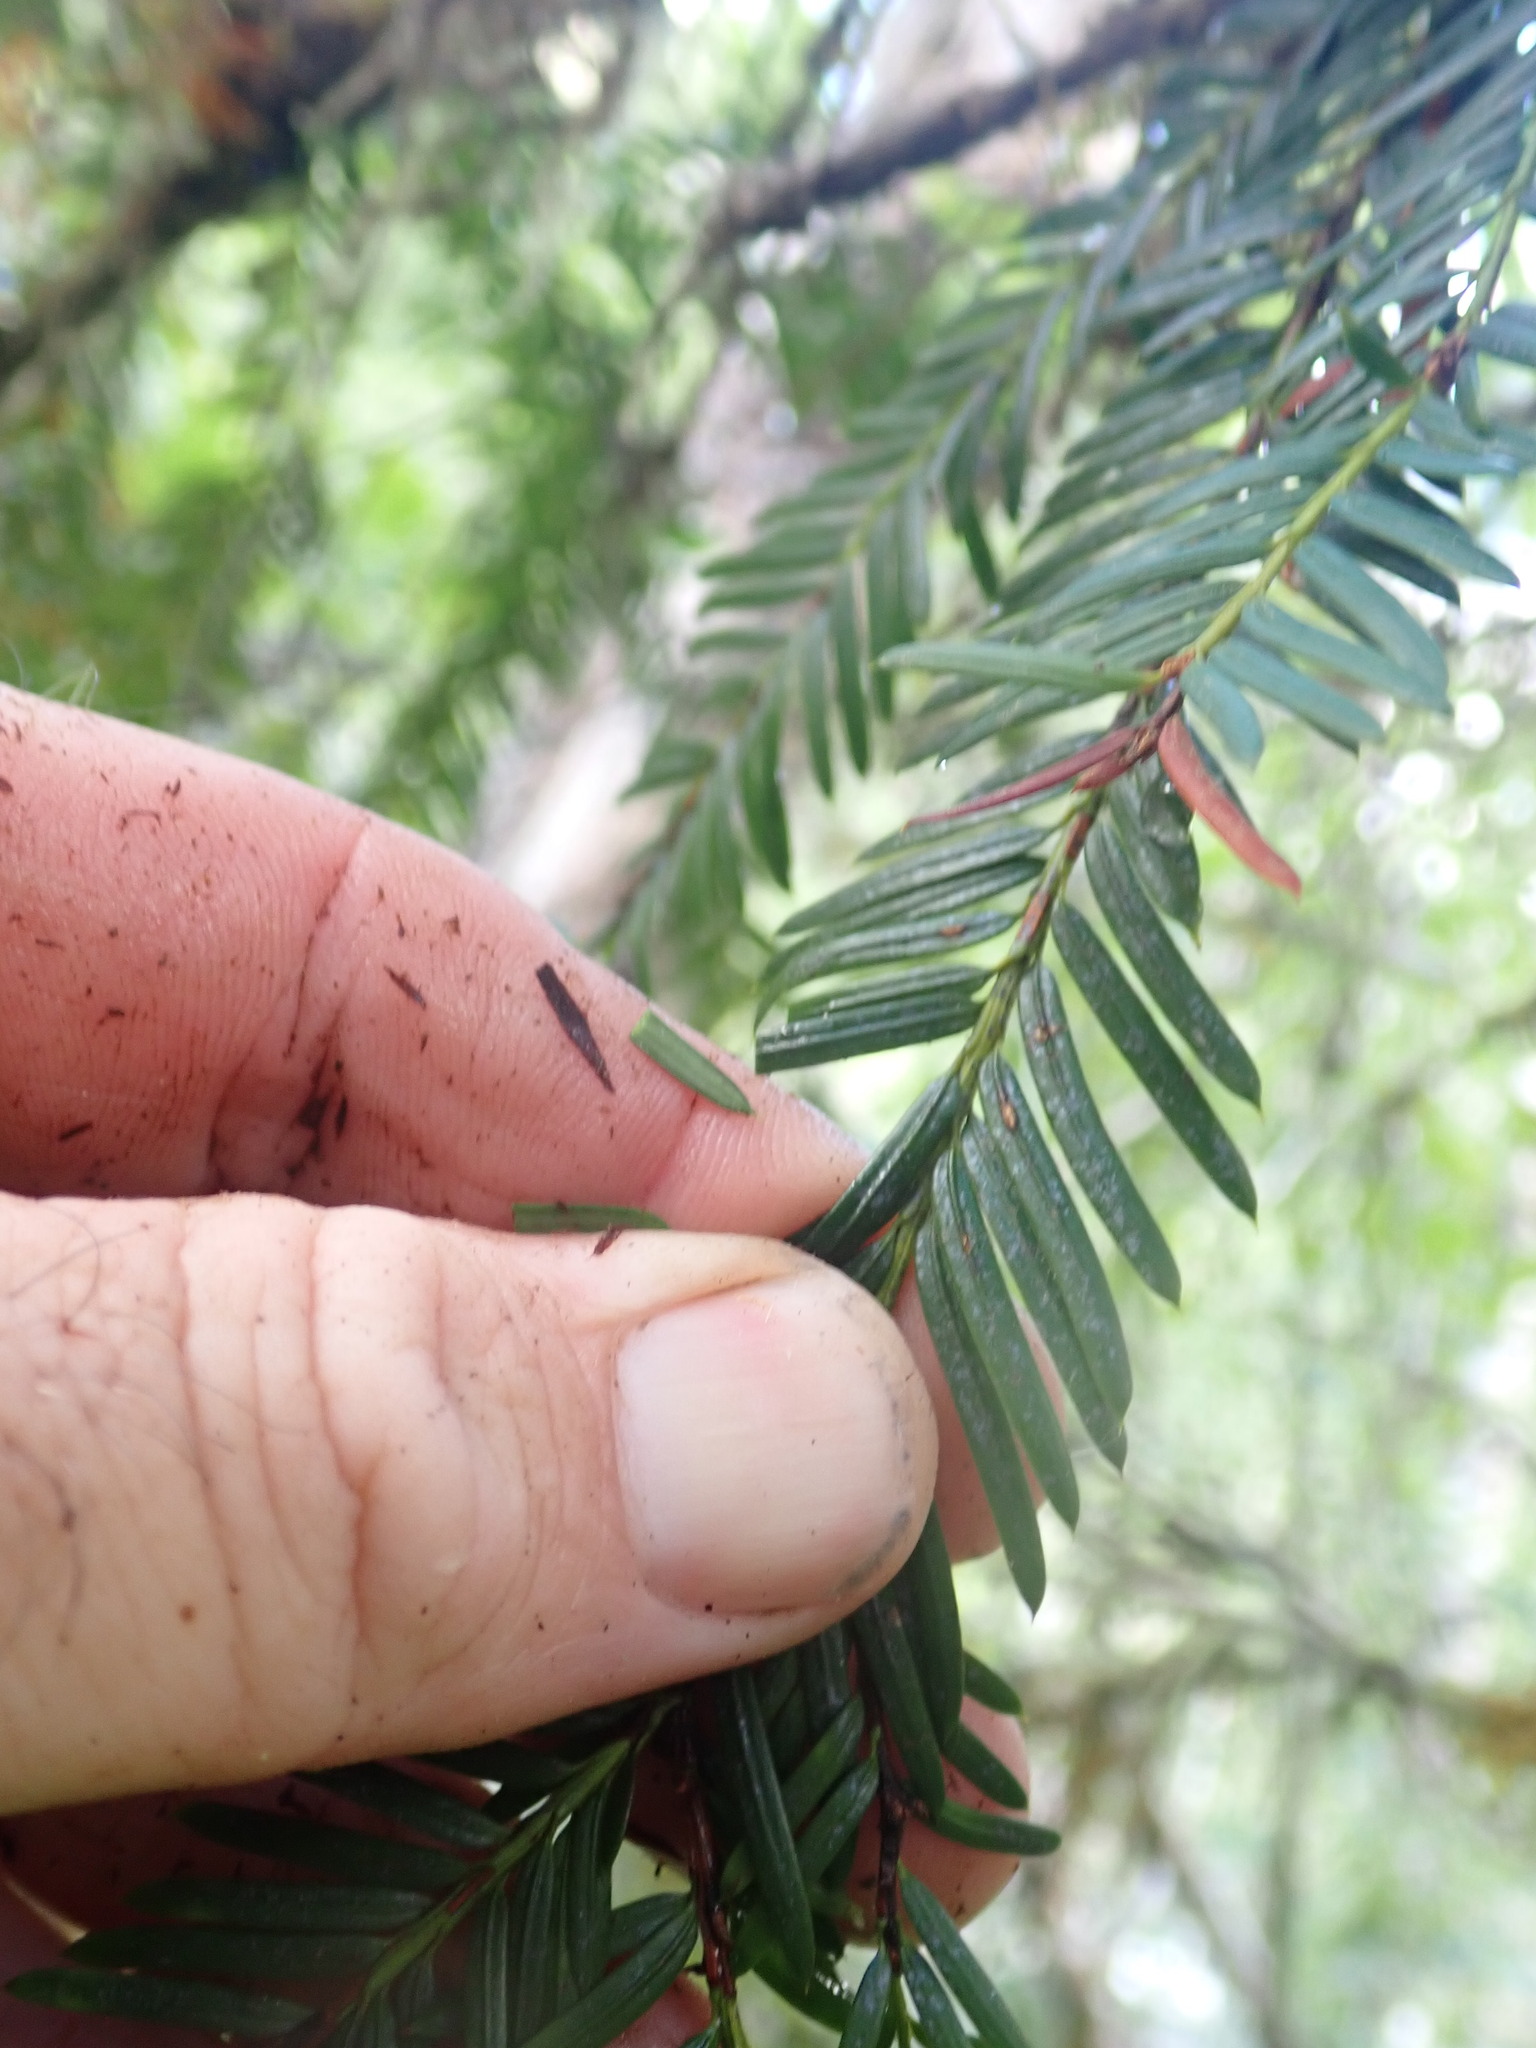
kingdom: Plantae
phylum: Tracheophyta
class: Pinopsida
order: Pinales
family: Taxaceae
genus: Taxus
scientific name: Taxus brevifolia
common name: Pacific yew
